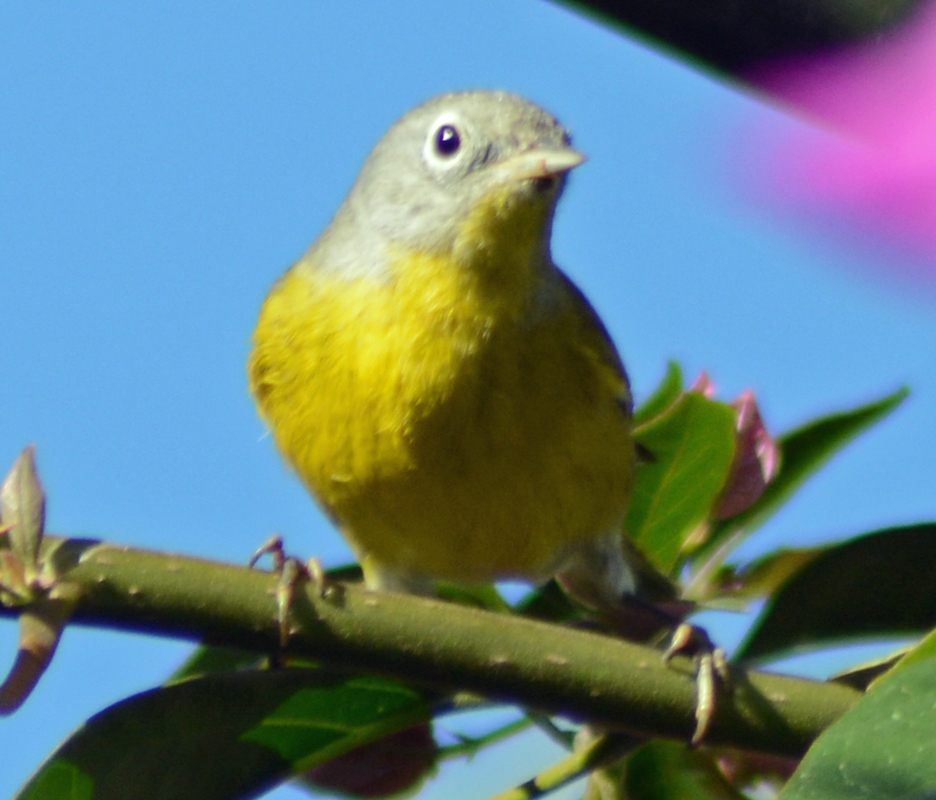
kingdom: Animalia
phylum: Chordata
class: Aves
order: Passeriformes
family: Parulidae
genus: Leiothlypis
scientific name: Leiothlypis ruficapilla
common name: Nashville warbler
